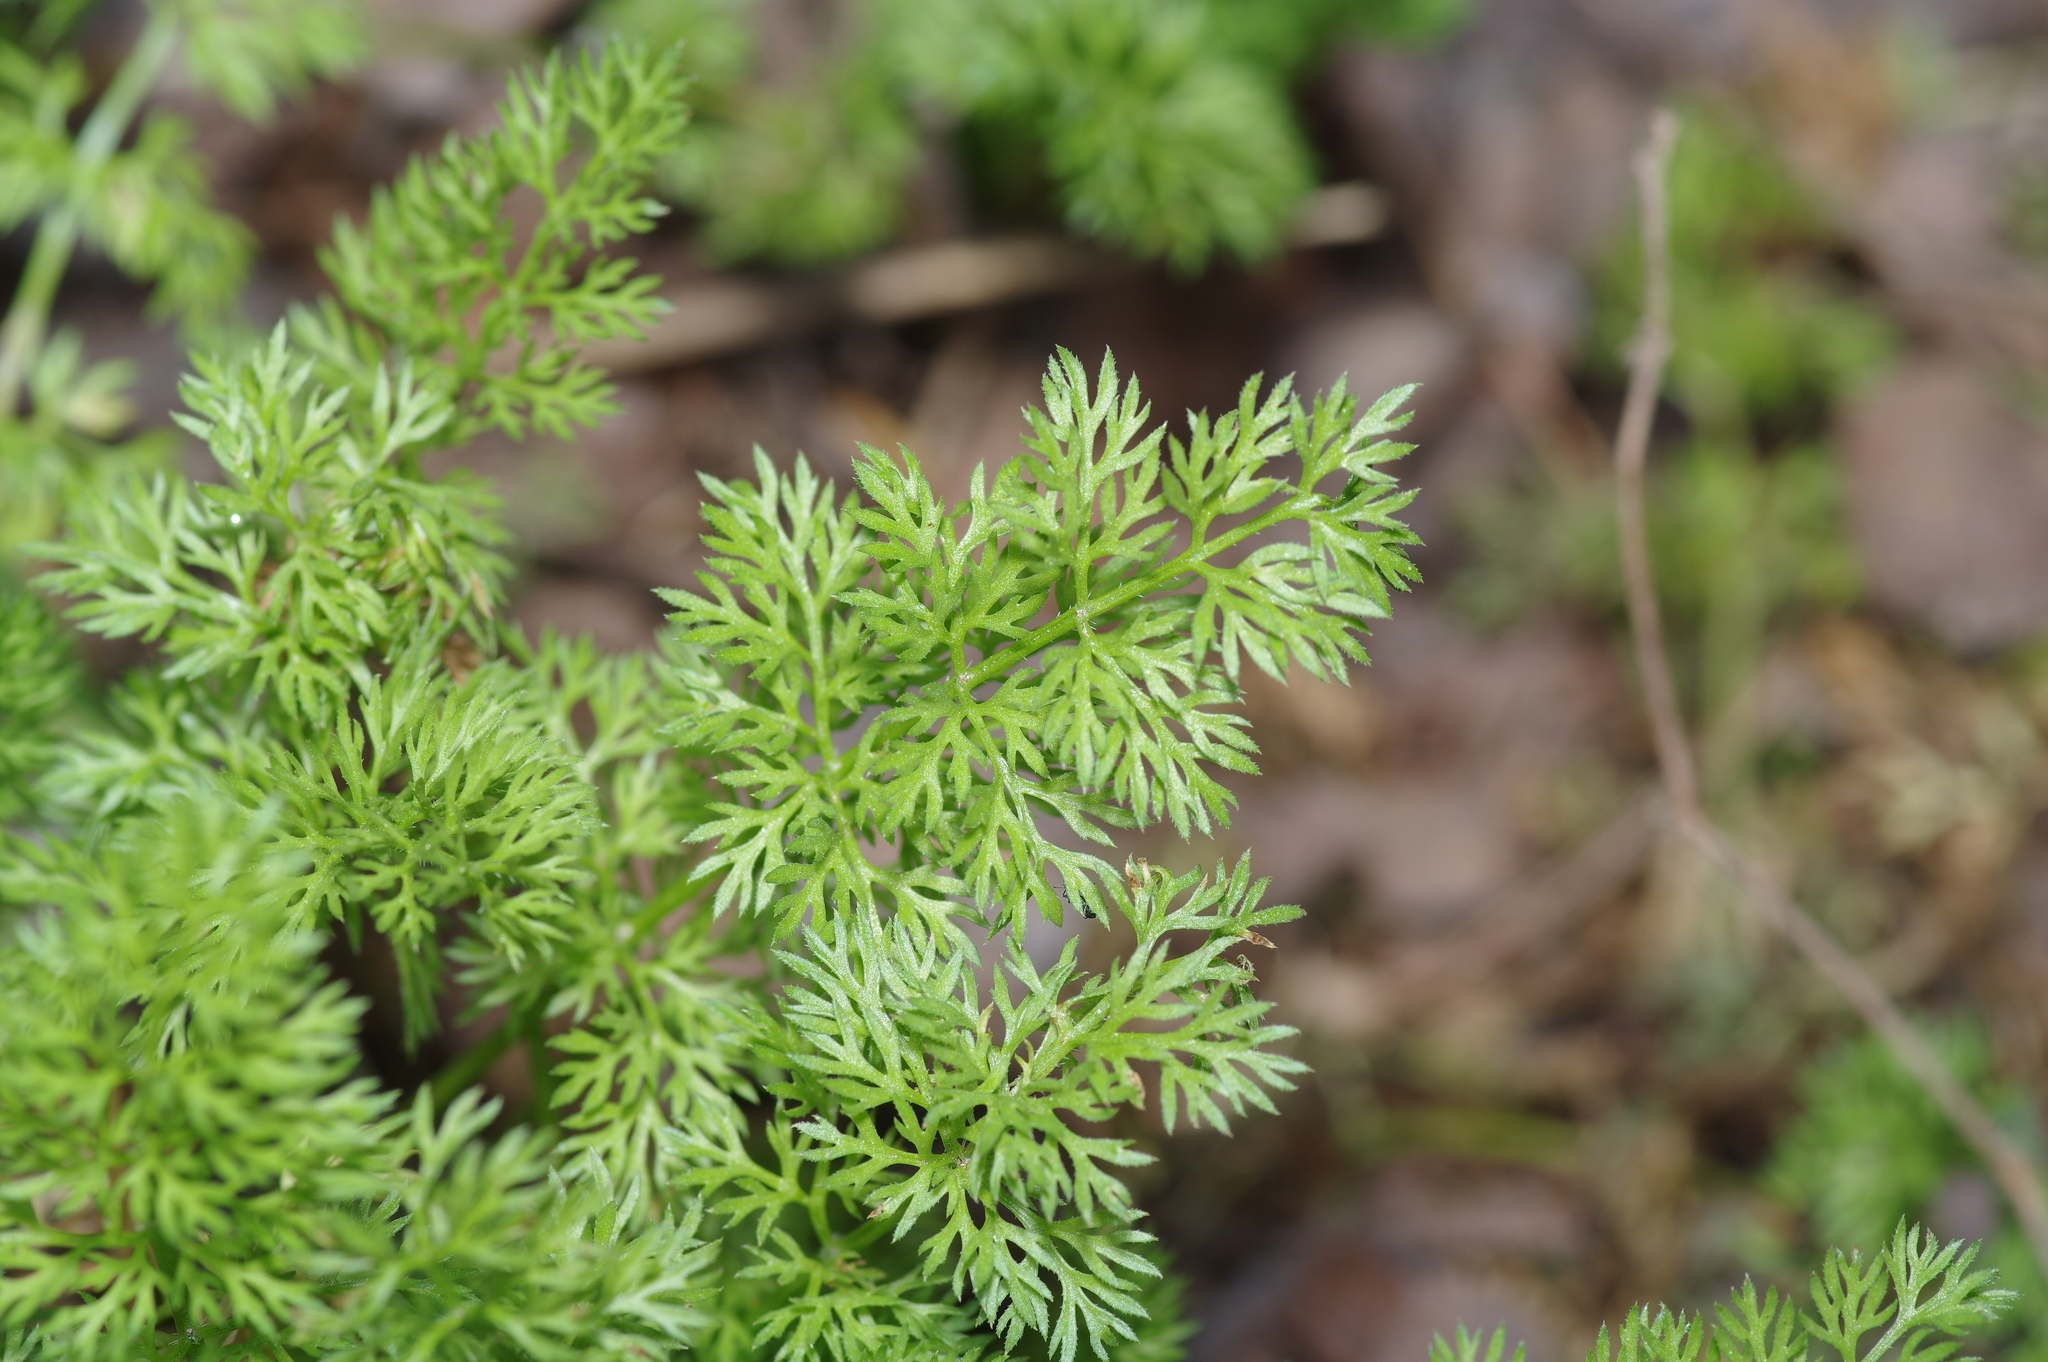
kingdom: Plantae
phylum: Tracheophyta
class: Magnoliopsida
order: Apiales
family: Apiaceae
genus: Scandix
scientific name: Scandix pecten-veneris
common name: Shepherd's-needle
